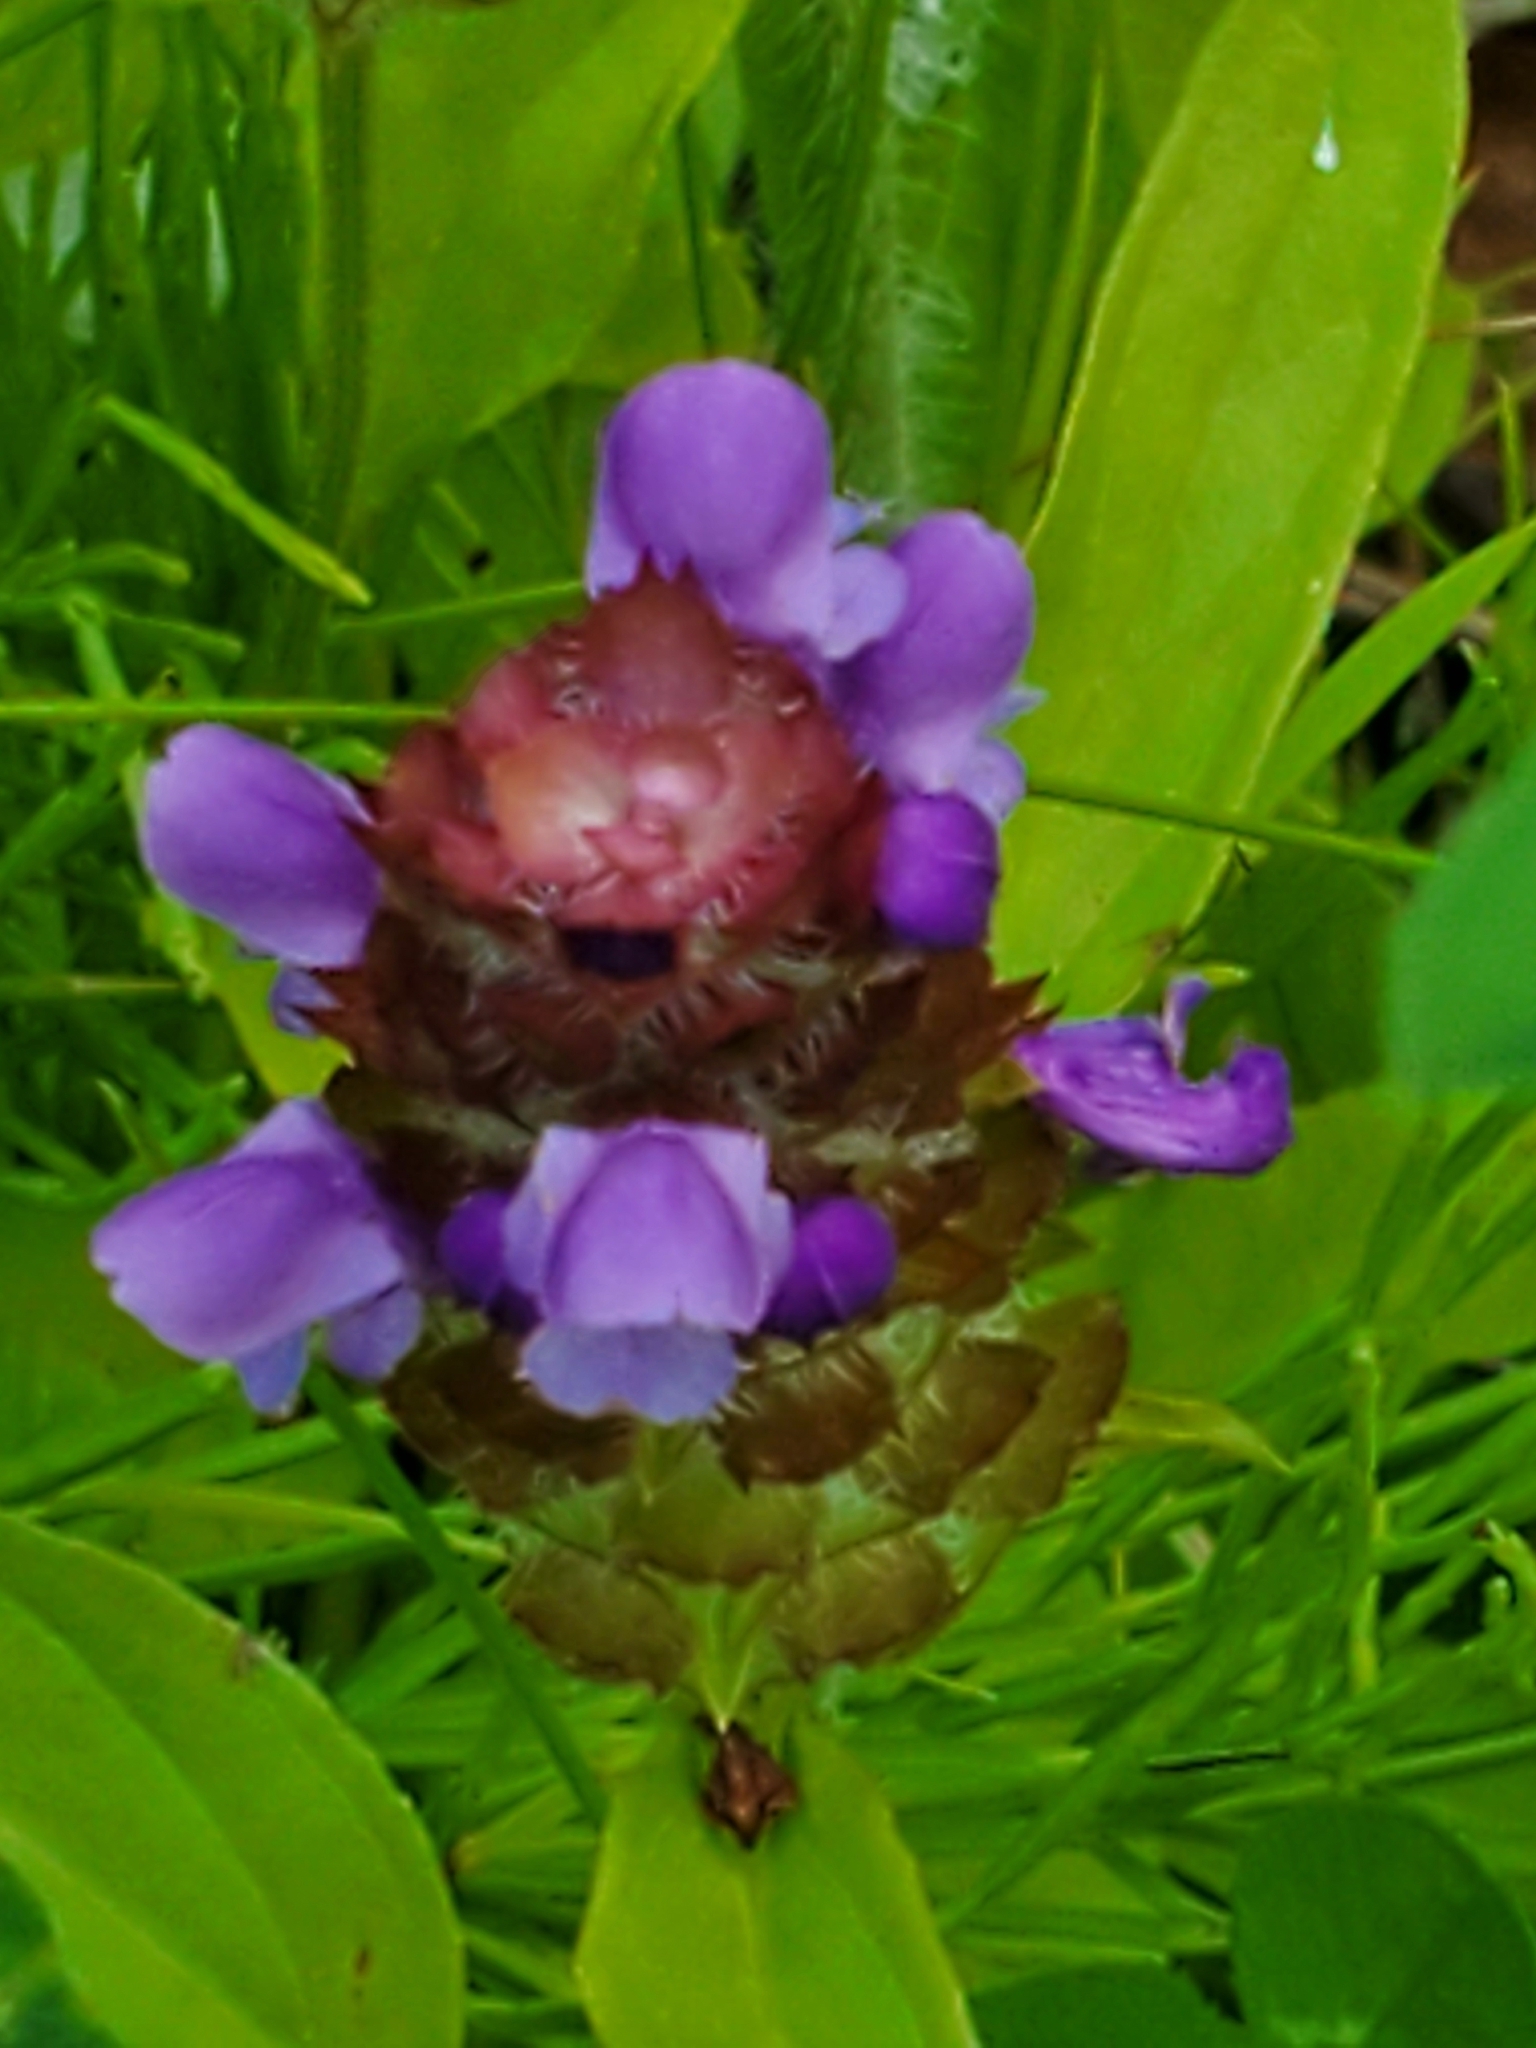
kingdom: Plantae
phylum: Tracheophyta
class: Magnoliopsida
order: Lamiales
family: Lamiaceae
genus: Prunella
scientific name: Prunella vulgaris
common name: Heal-all
